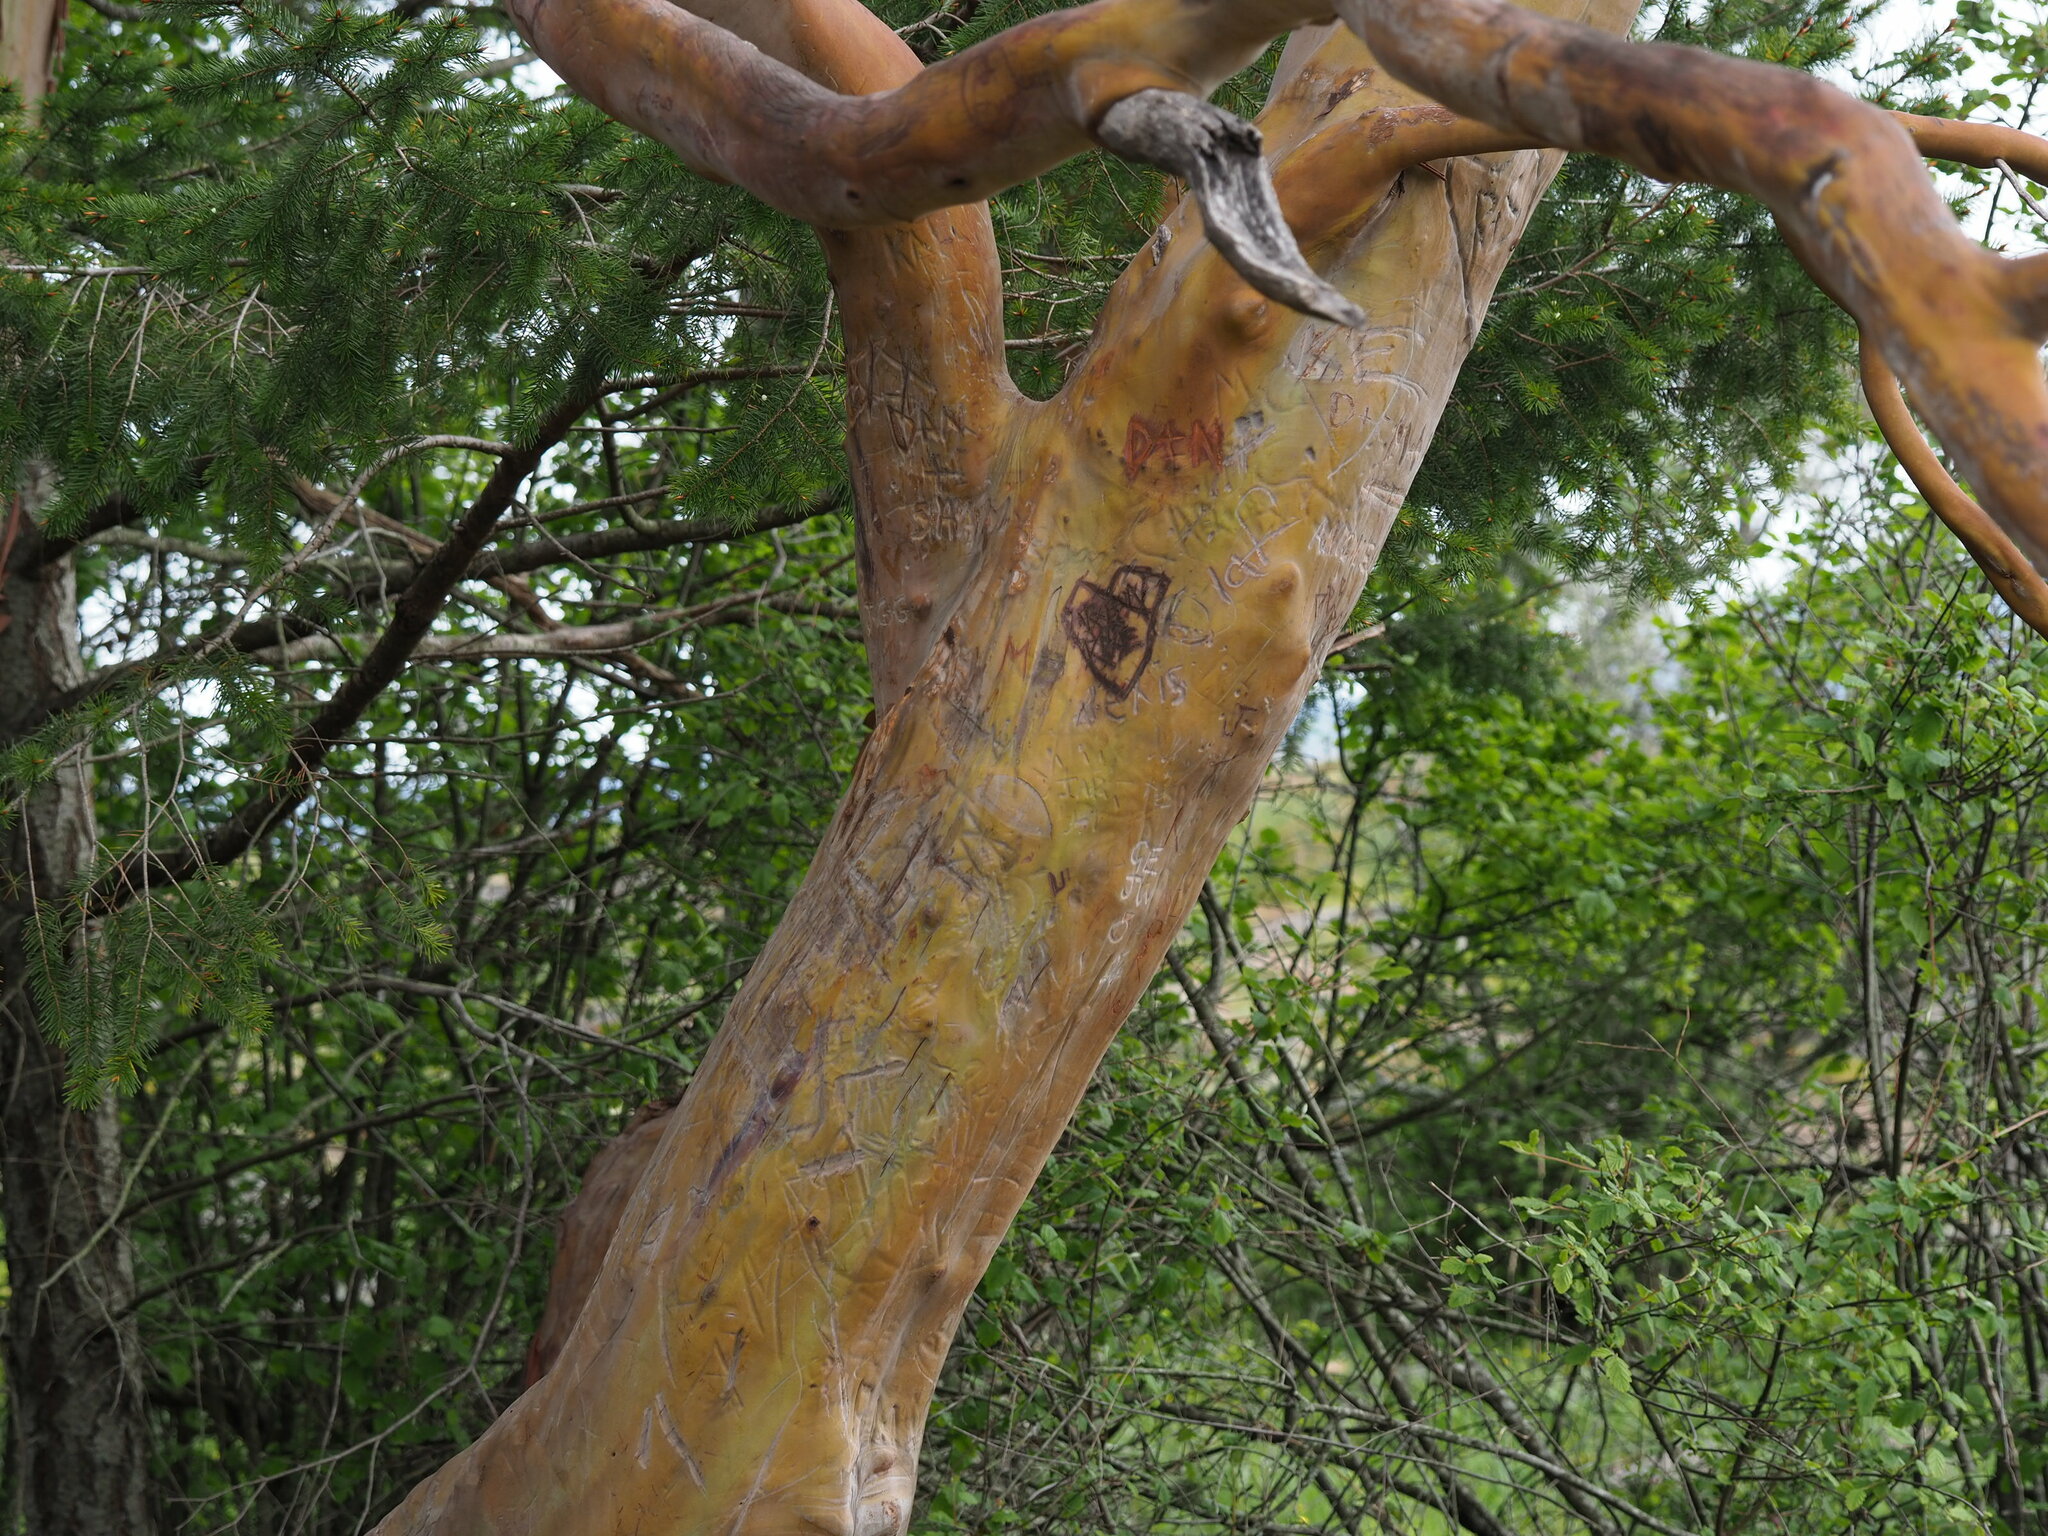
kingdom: Plantae
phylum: Tracheophyta
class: Magnoliopsida
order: Ericales
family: Ericaceae
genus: Arbutus
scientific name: Arbutus menziesii
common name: Pacific madrone
